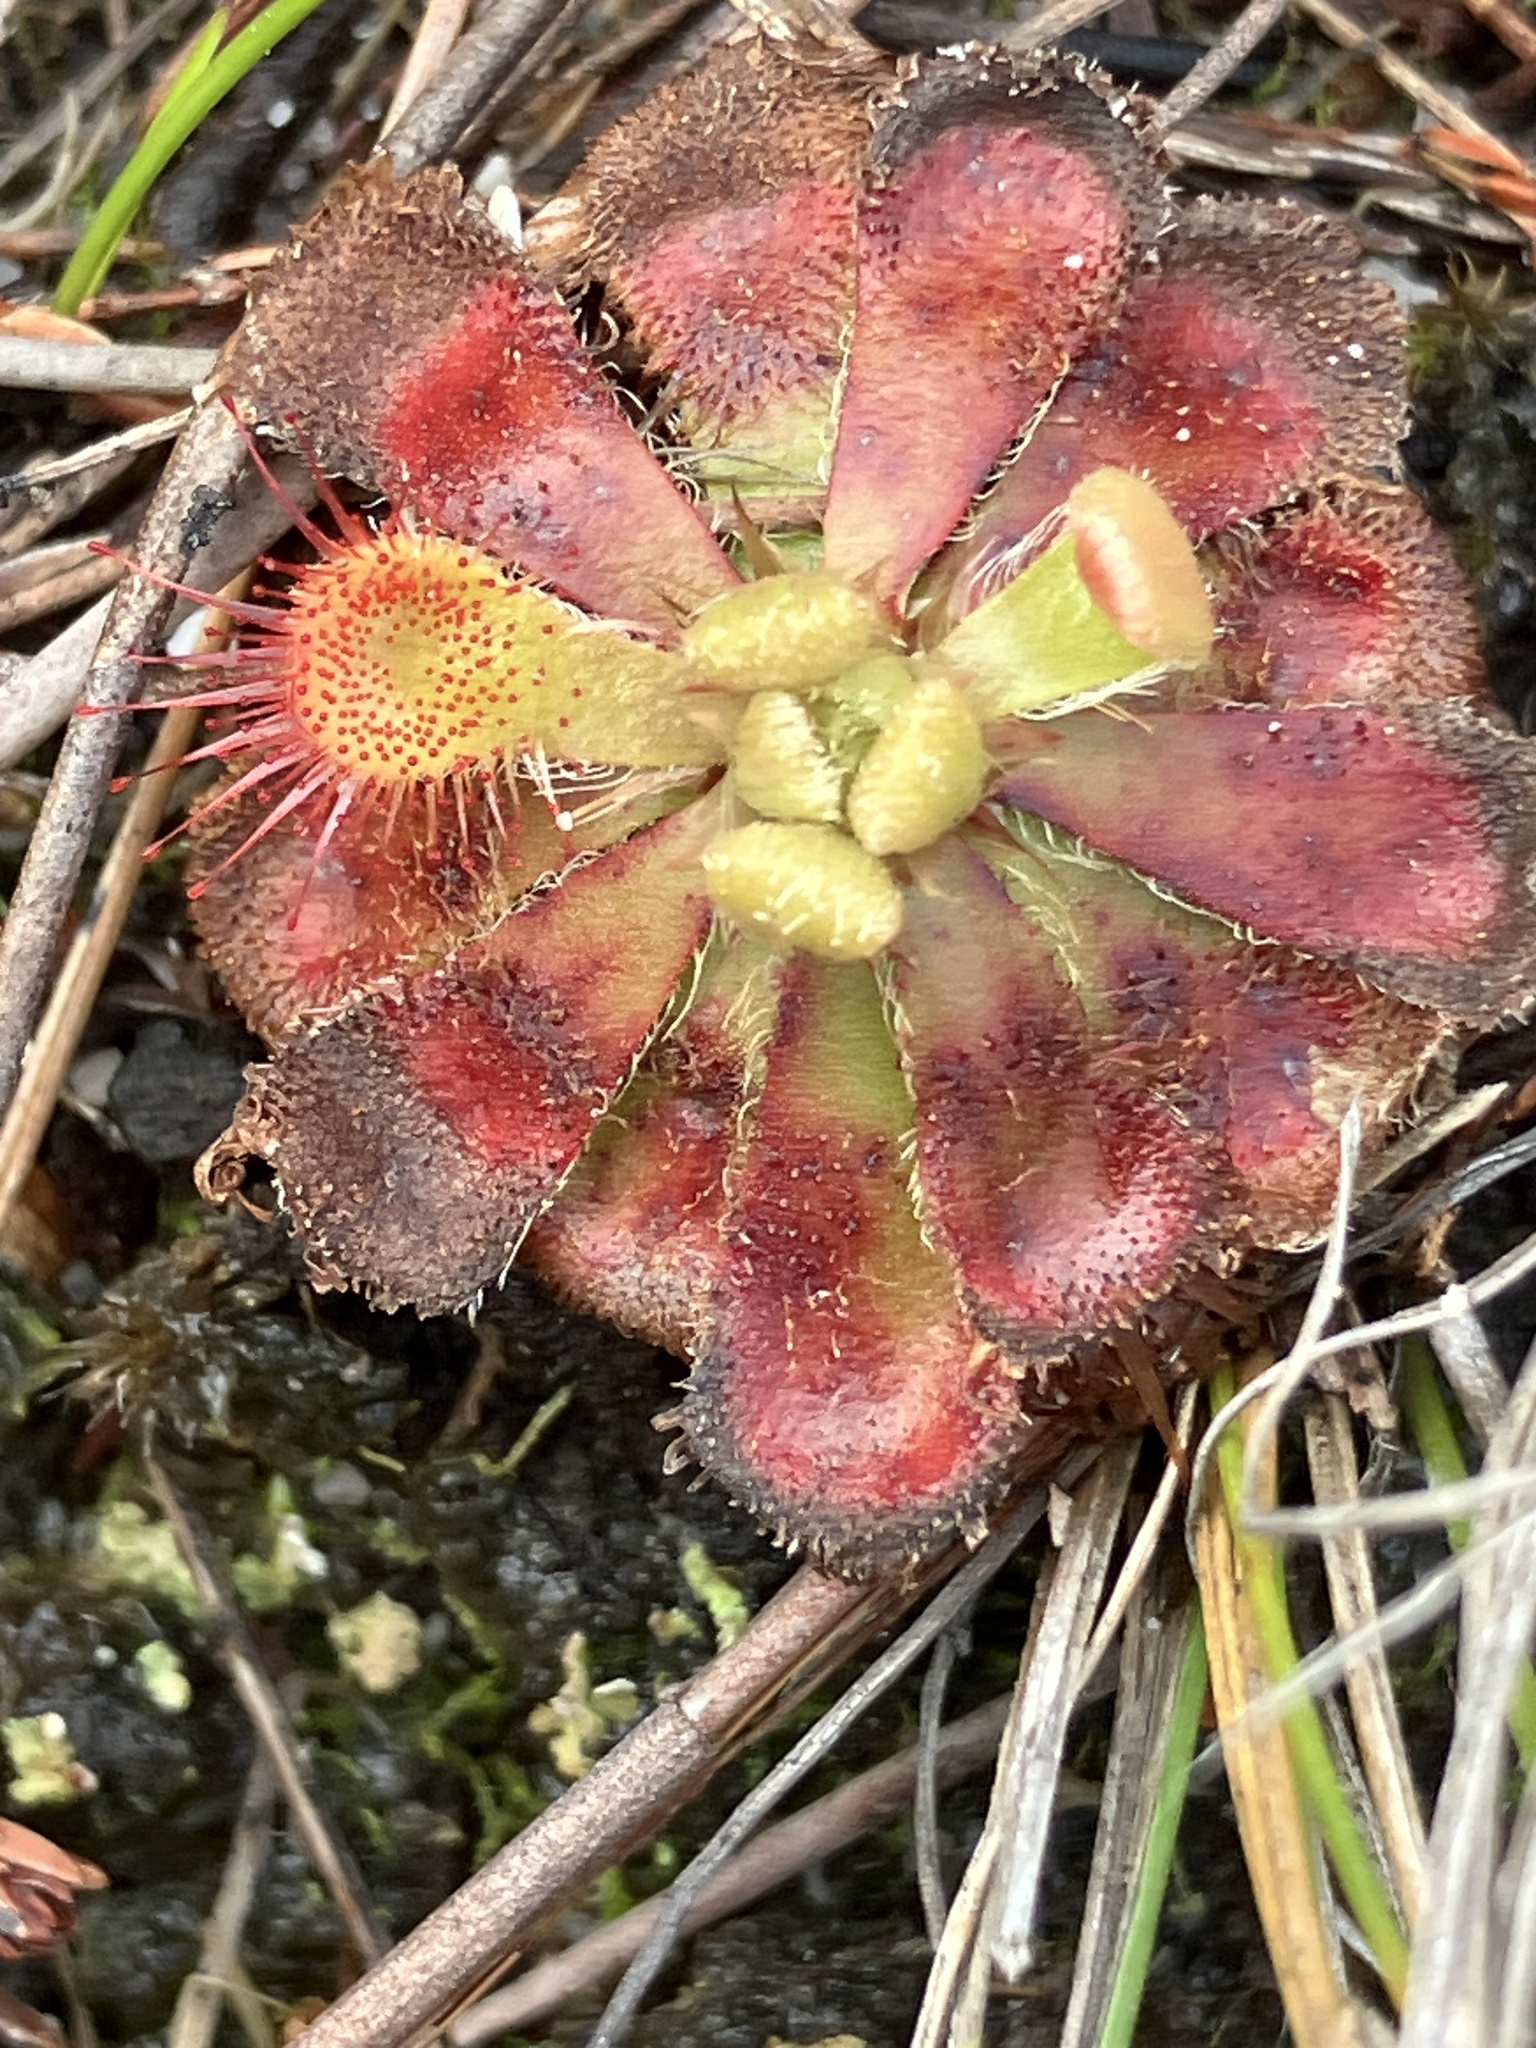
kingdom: Plantae
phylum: Tracheophyta
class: Magnoliopsida
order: Caryophyllales
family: Droseraceae
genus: Drosera
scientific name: Drosera xerophila
